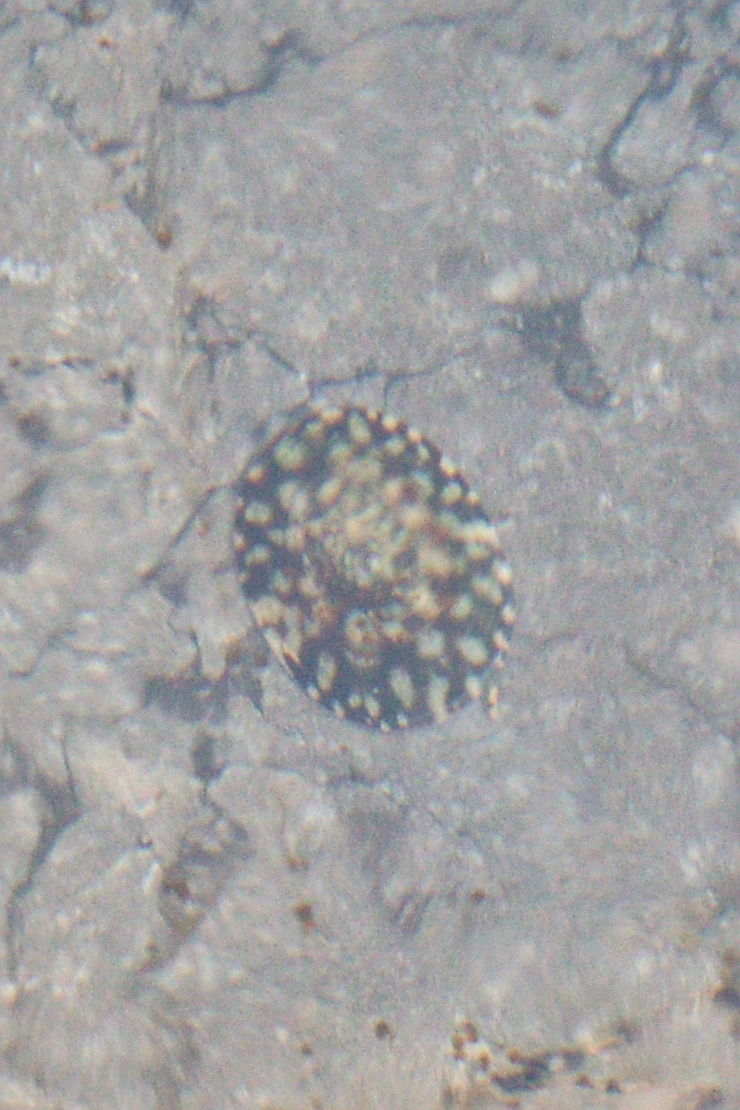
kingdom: Animalia
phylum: Mollusca
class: Gastropoda
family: Lottiidae
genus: Testudinalia
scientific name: Testudinalia testudinalis
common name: Common tortoiseshell limpet
